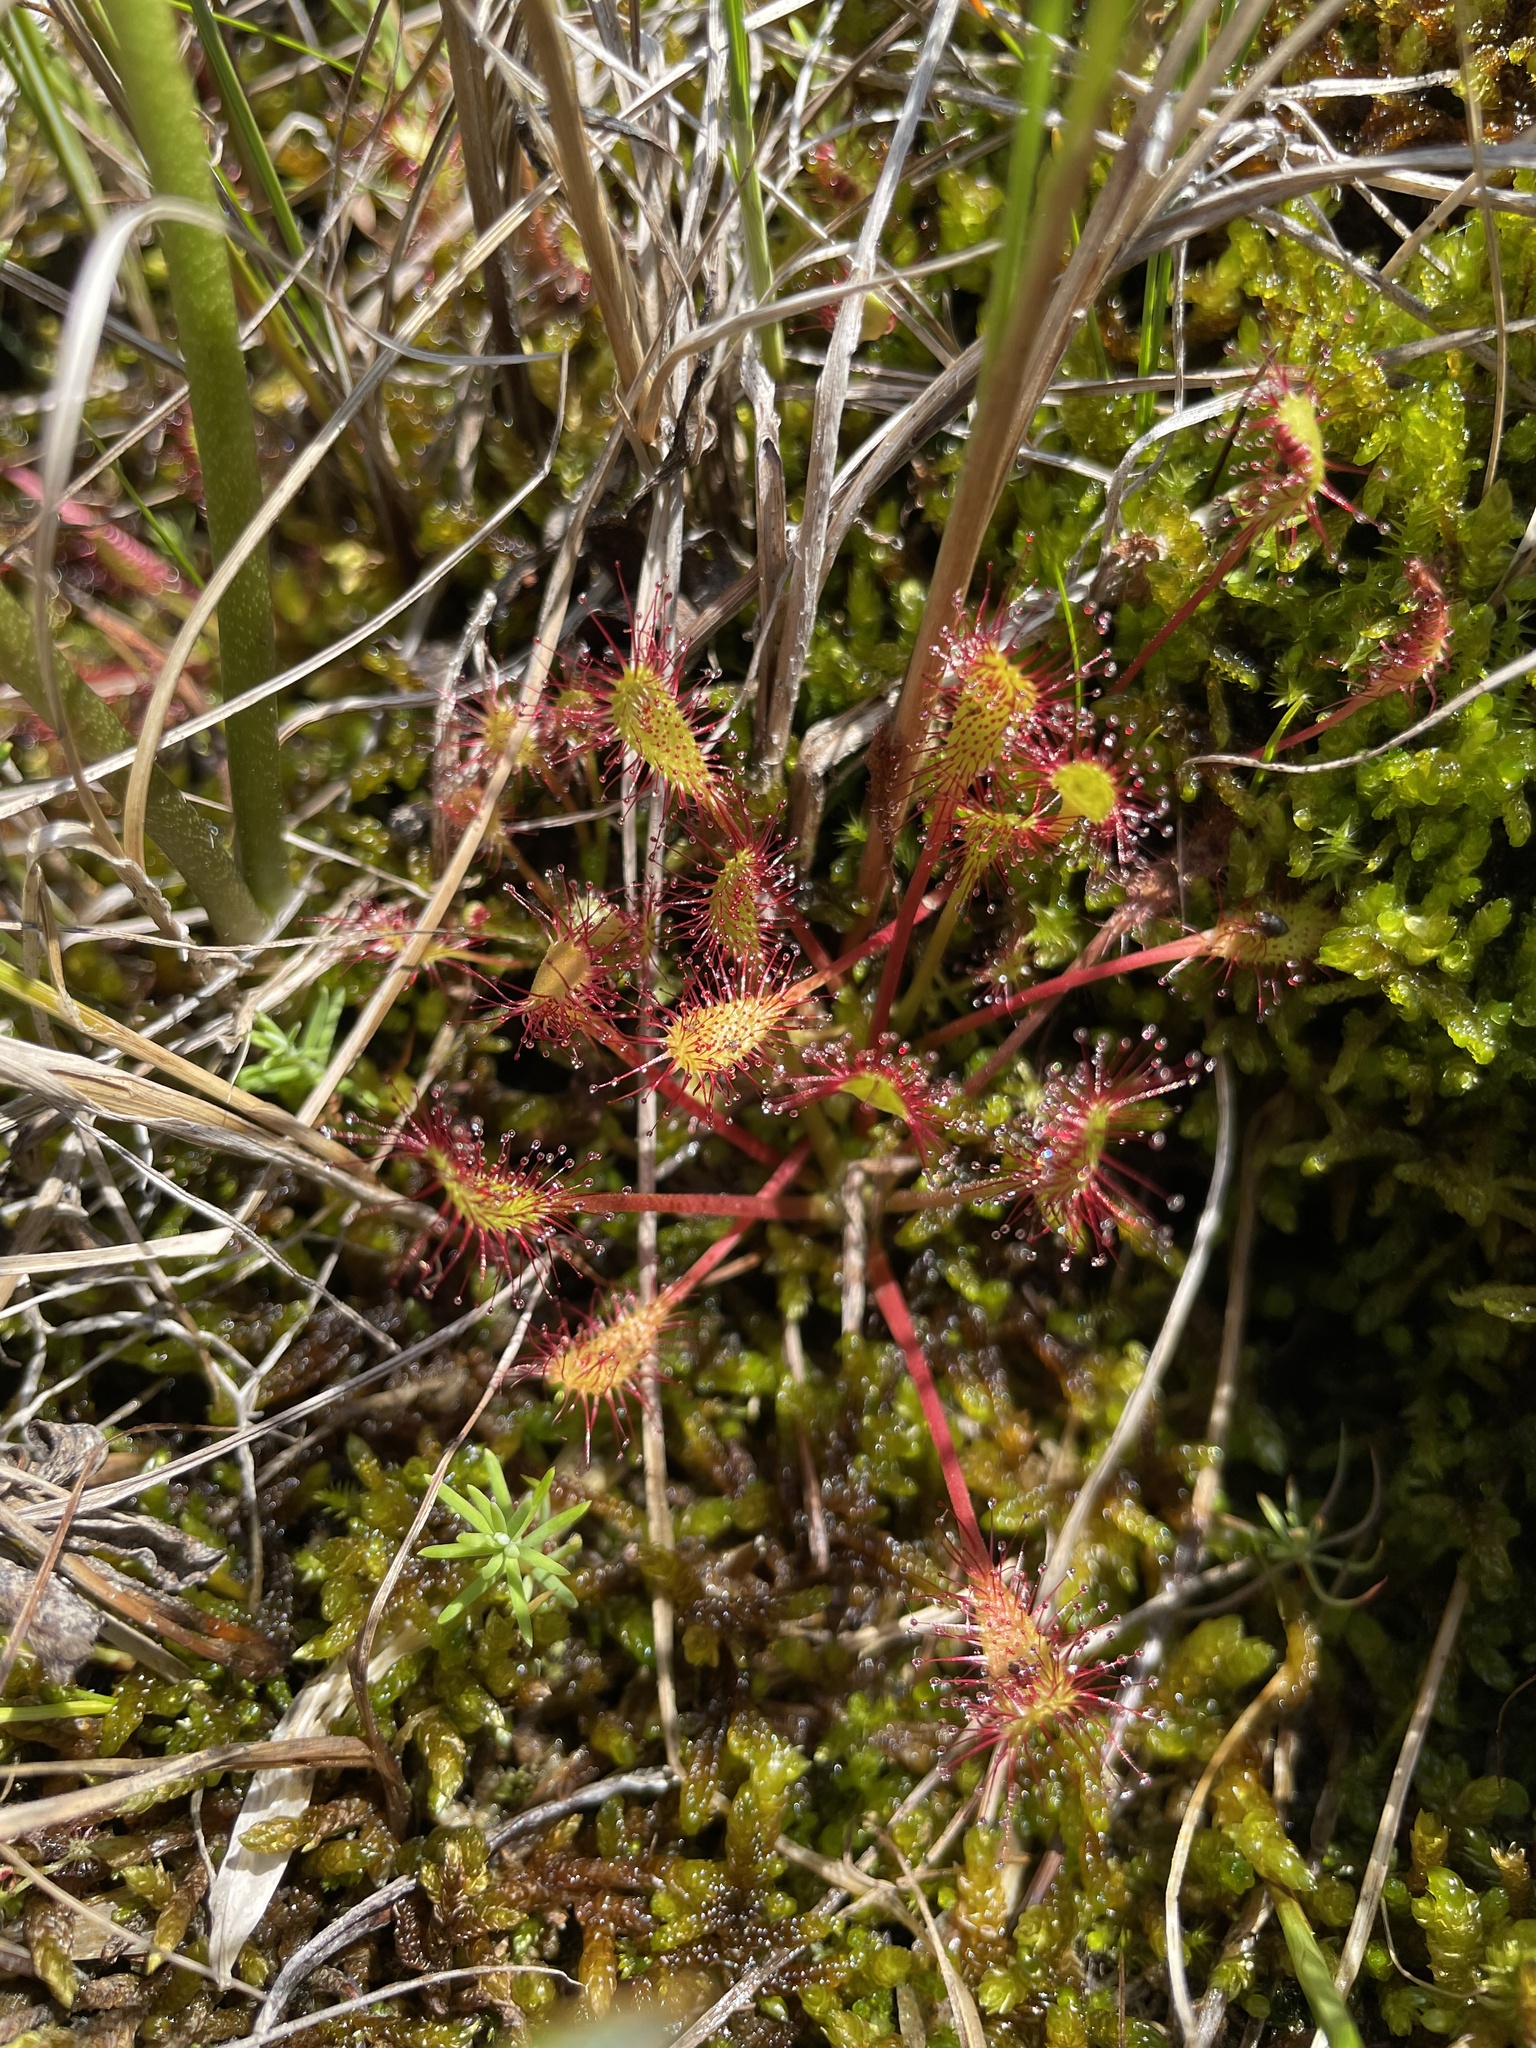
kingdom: Plantae
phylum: Tracheophyta
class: Magnoliopsida
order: Caryophyllales
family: Droseraceae
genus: Drosera
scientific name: Drosera anglica
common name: Great sundew
